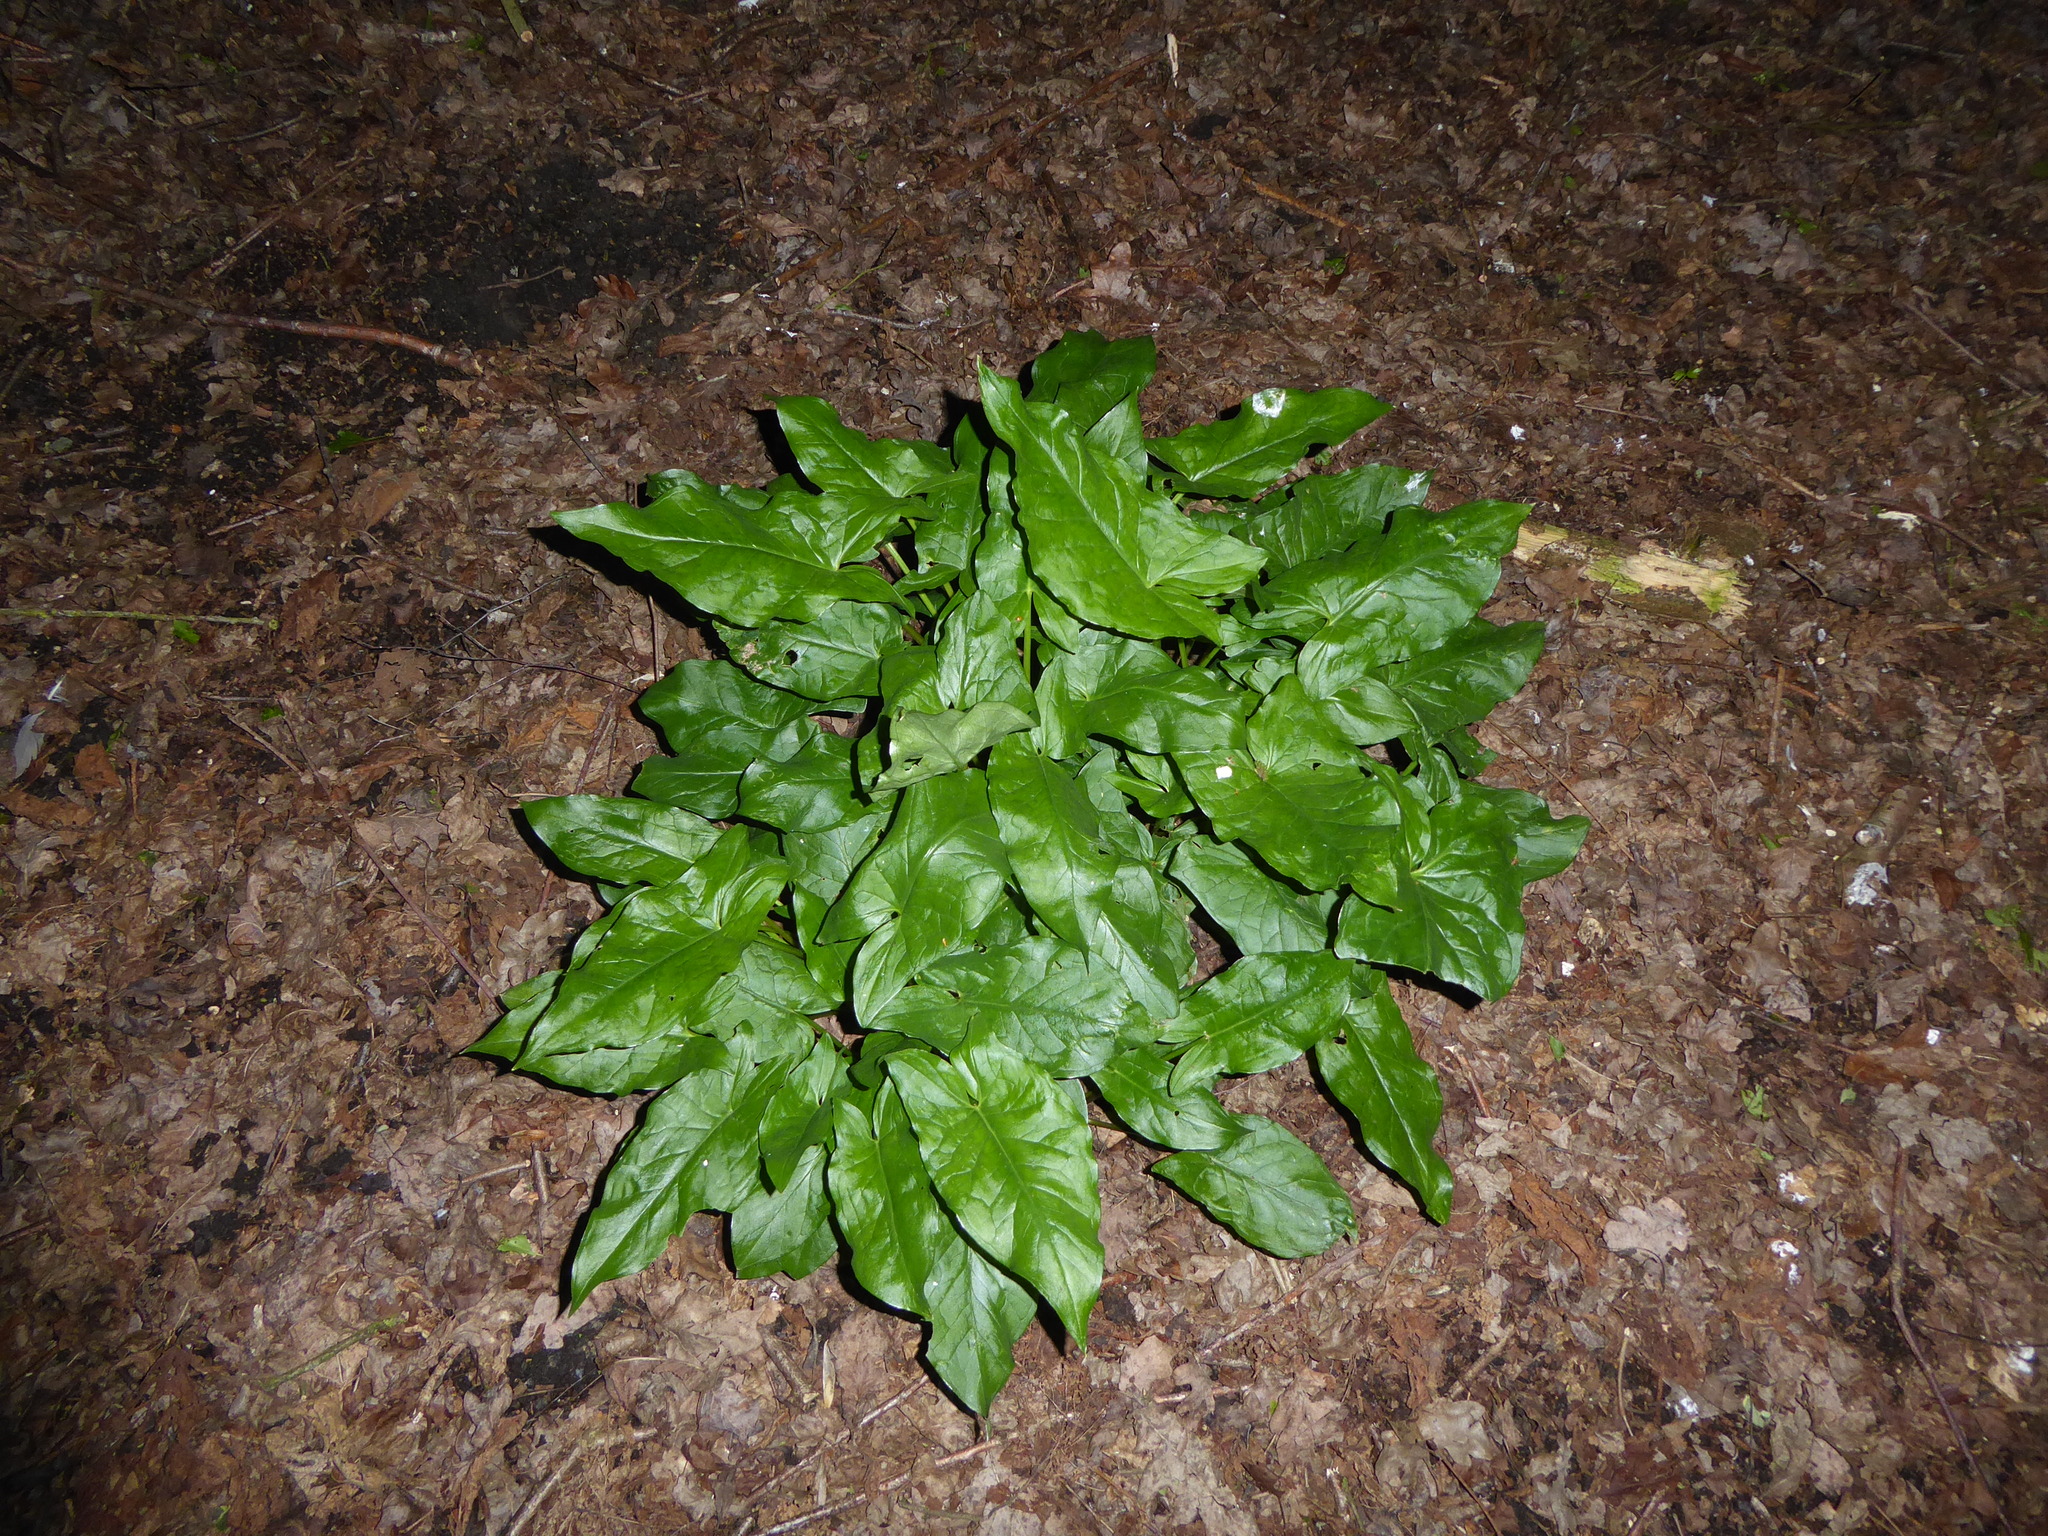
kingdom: Plantae
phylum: Tracheophyta
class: Liliopsida
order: Alismatales
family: Araceae
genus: Arum
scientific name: Arum maculatum
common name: Lords-and-ladies
